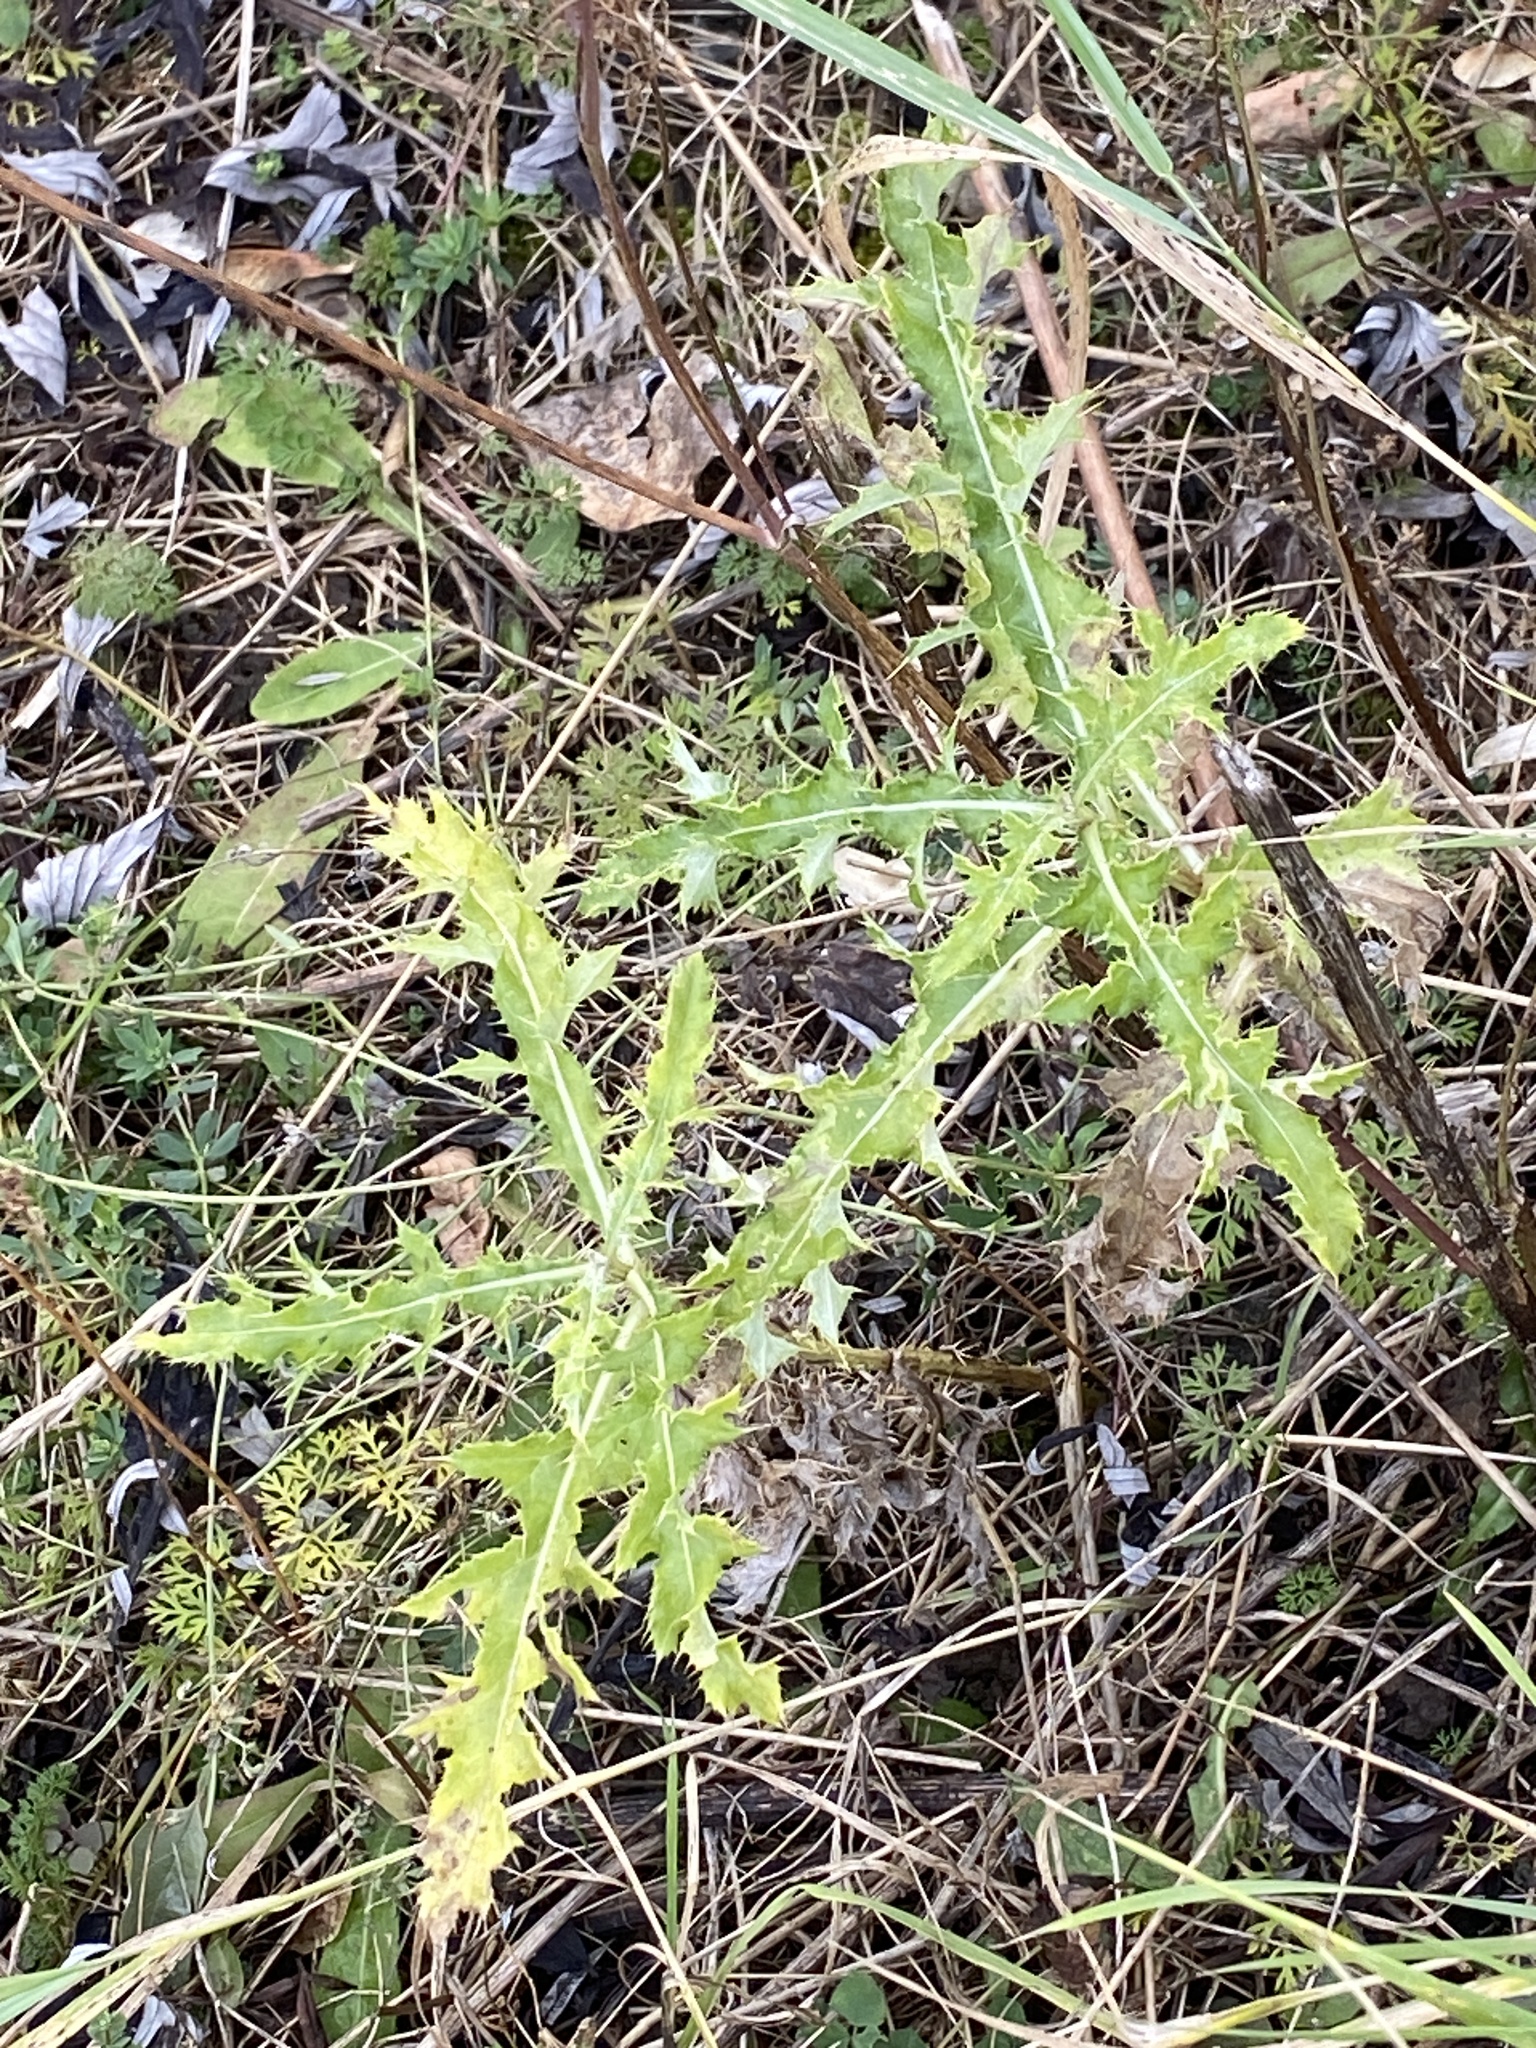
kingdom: Plantae
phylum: Tracheophyta
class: Magnoliopsida
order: Asterales
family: Asteraceae
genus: Cirsium
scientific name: Cirsium arvense
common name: Creeping thistle
